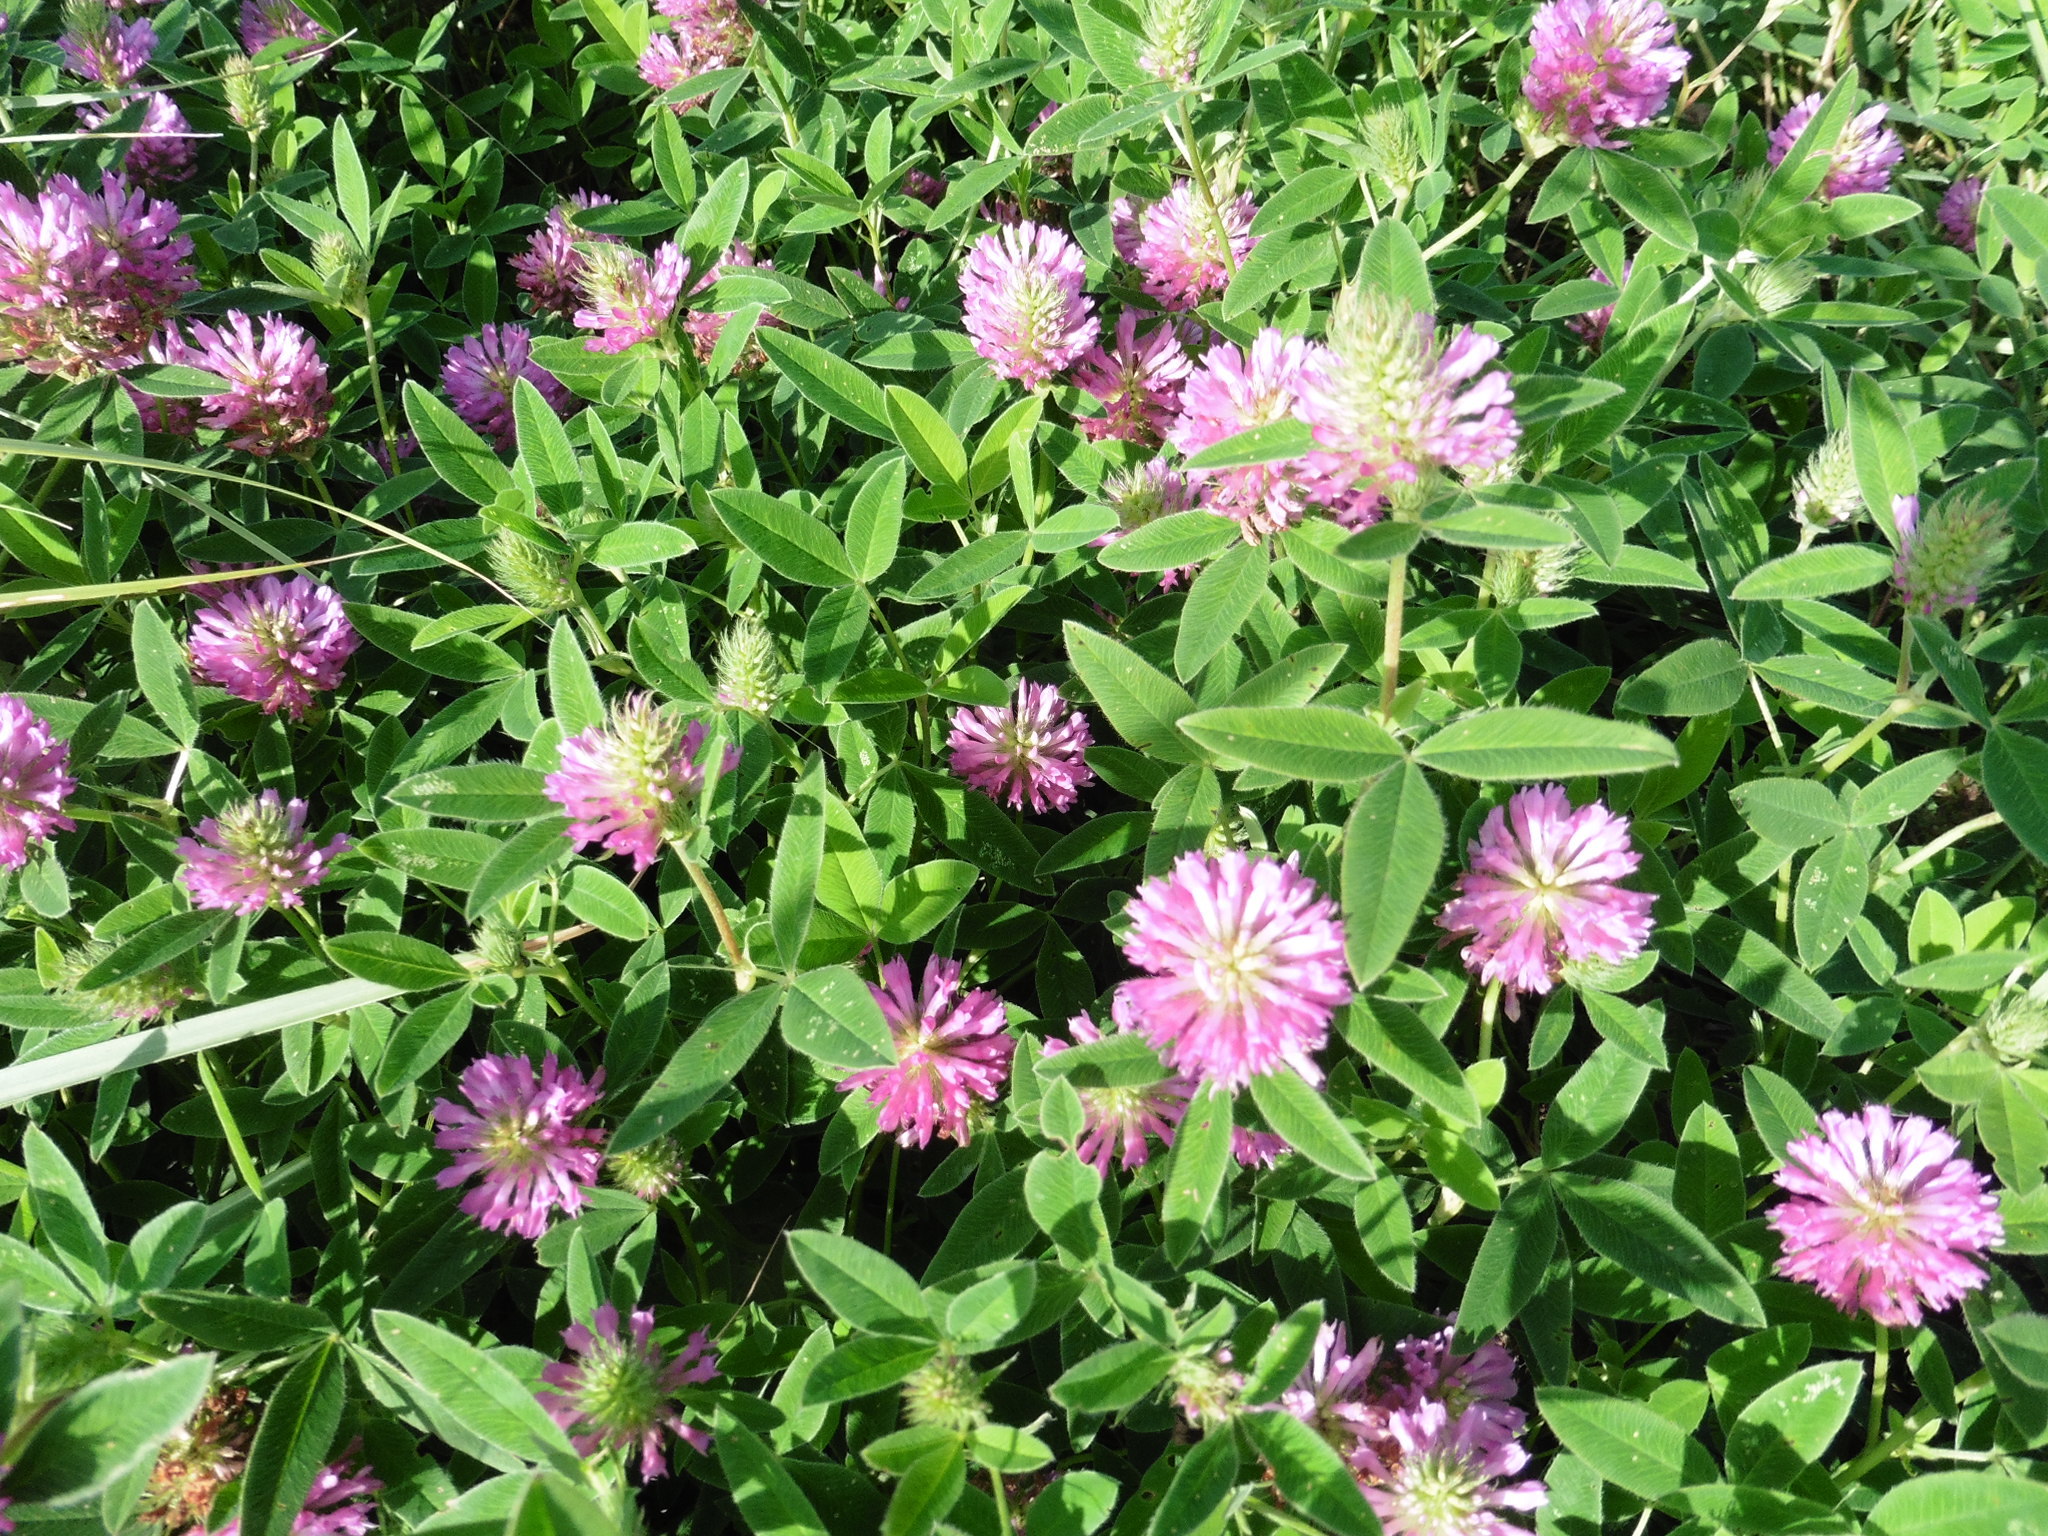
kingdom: Plantae
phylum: Tracheophyta
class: Magnoliopsida
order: Fabales
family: Fabaceae
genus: Trifolium
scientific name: Trifolium medium
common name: Zigzag clover
